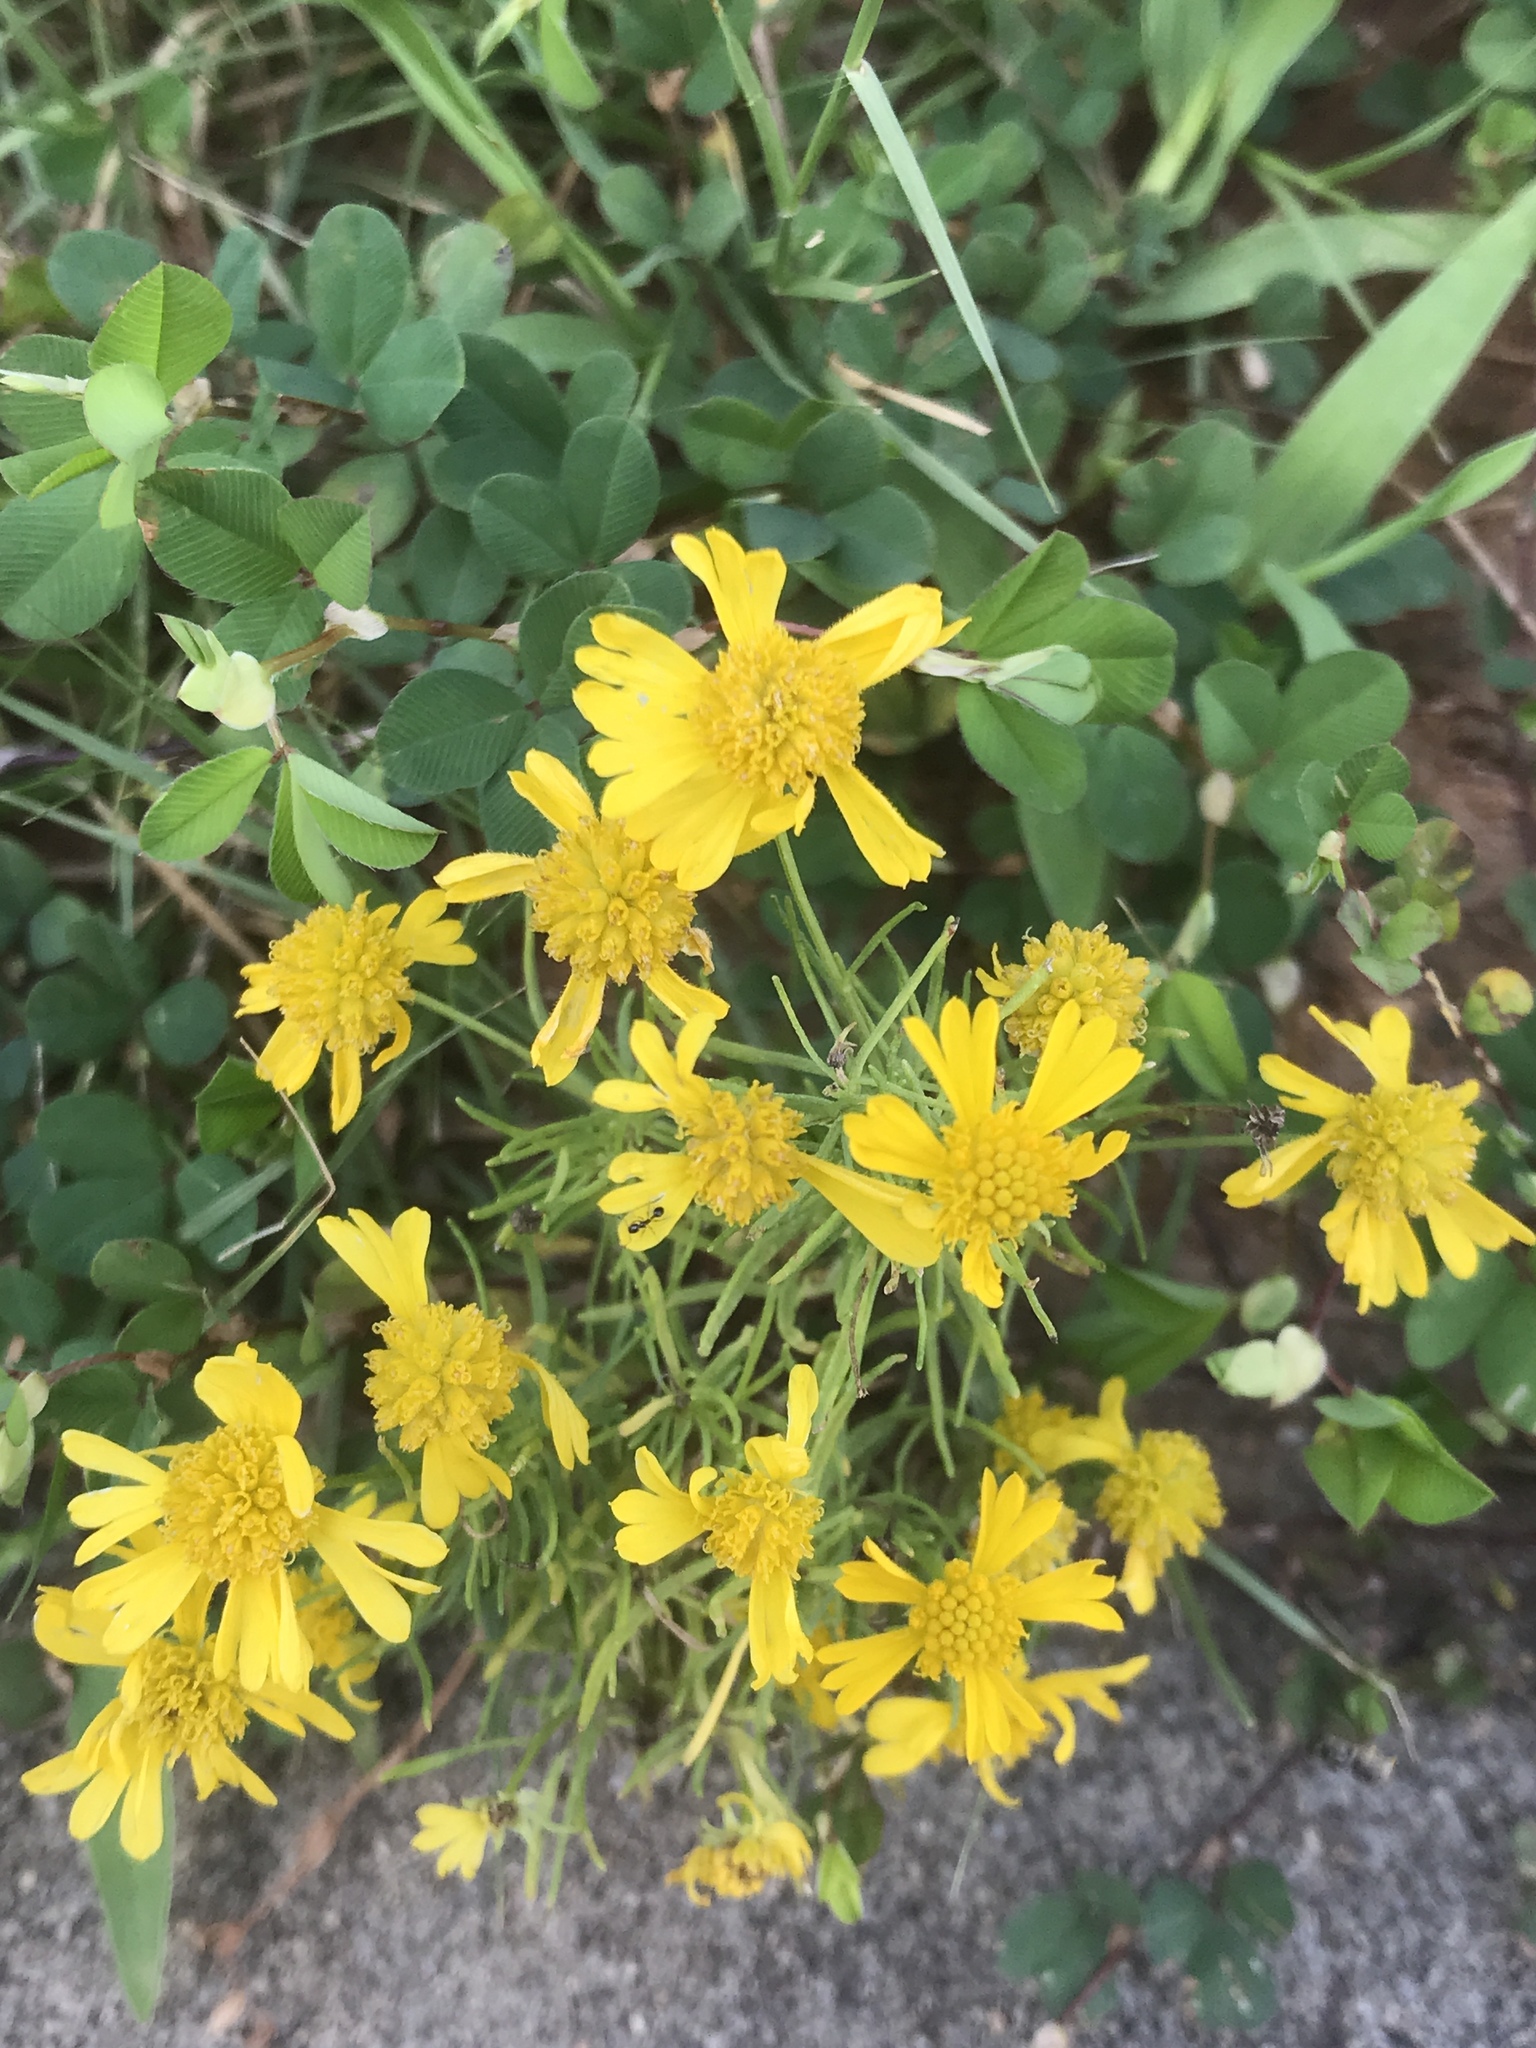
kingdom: Plantae
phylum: Tracheophyta
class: Magnoliopsida
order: Asterales
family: Asteraceae
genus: Helenium
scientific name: Helenium amarum
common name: Bitter sneezeweed
